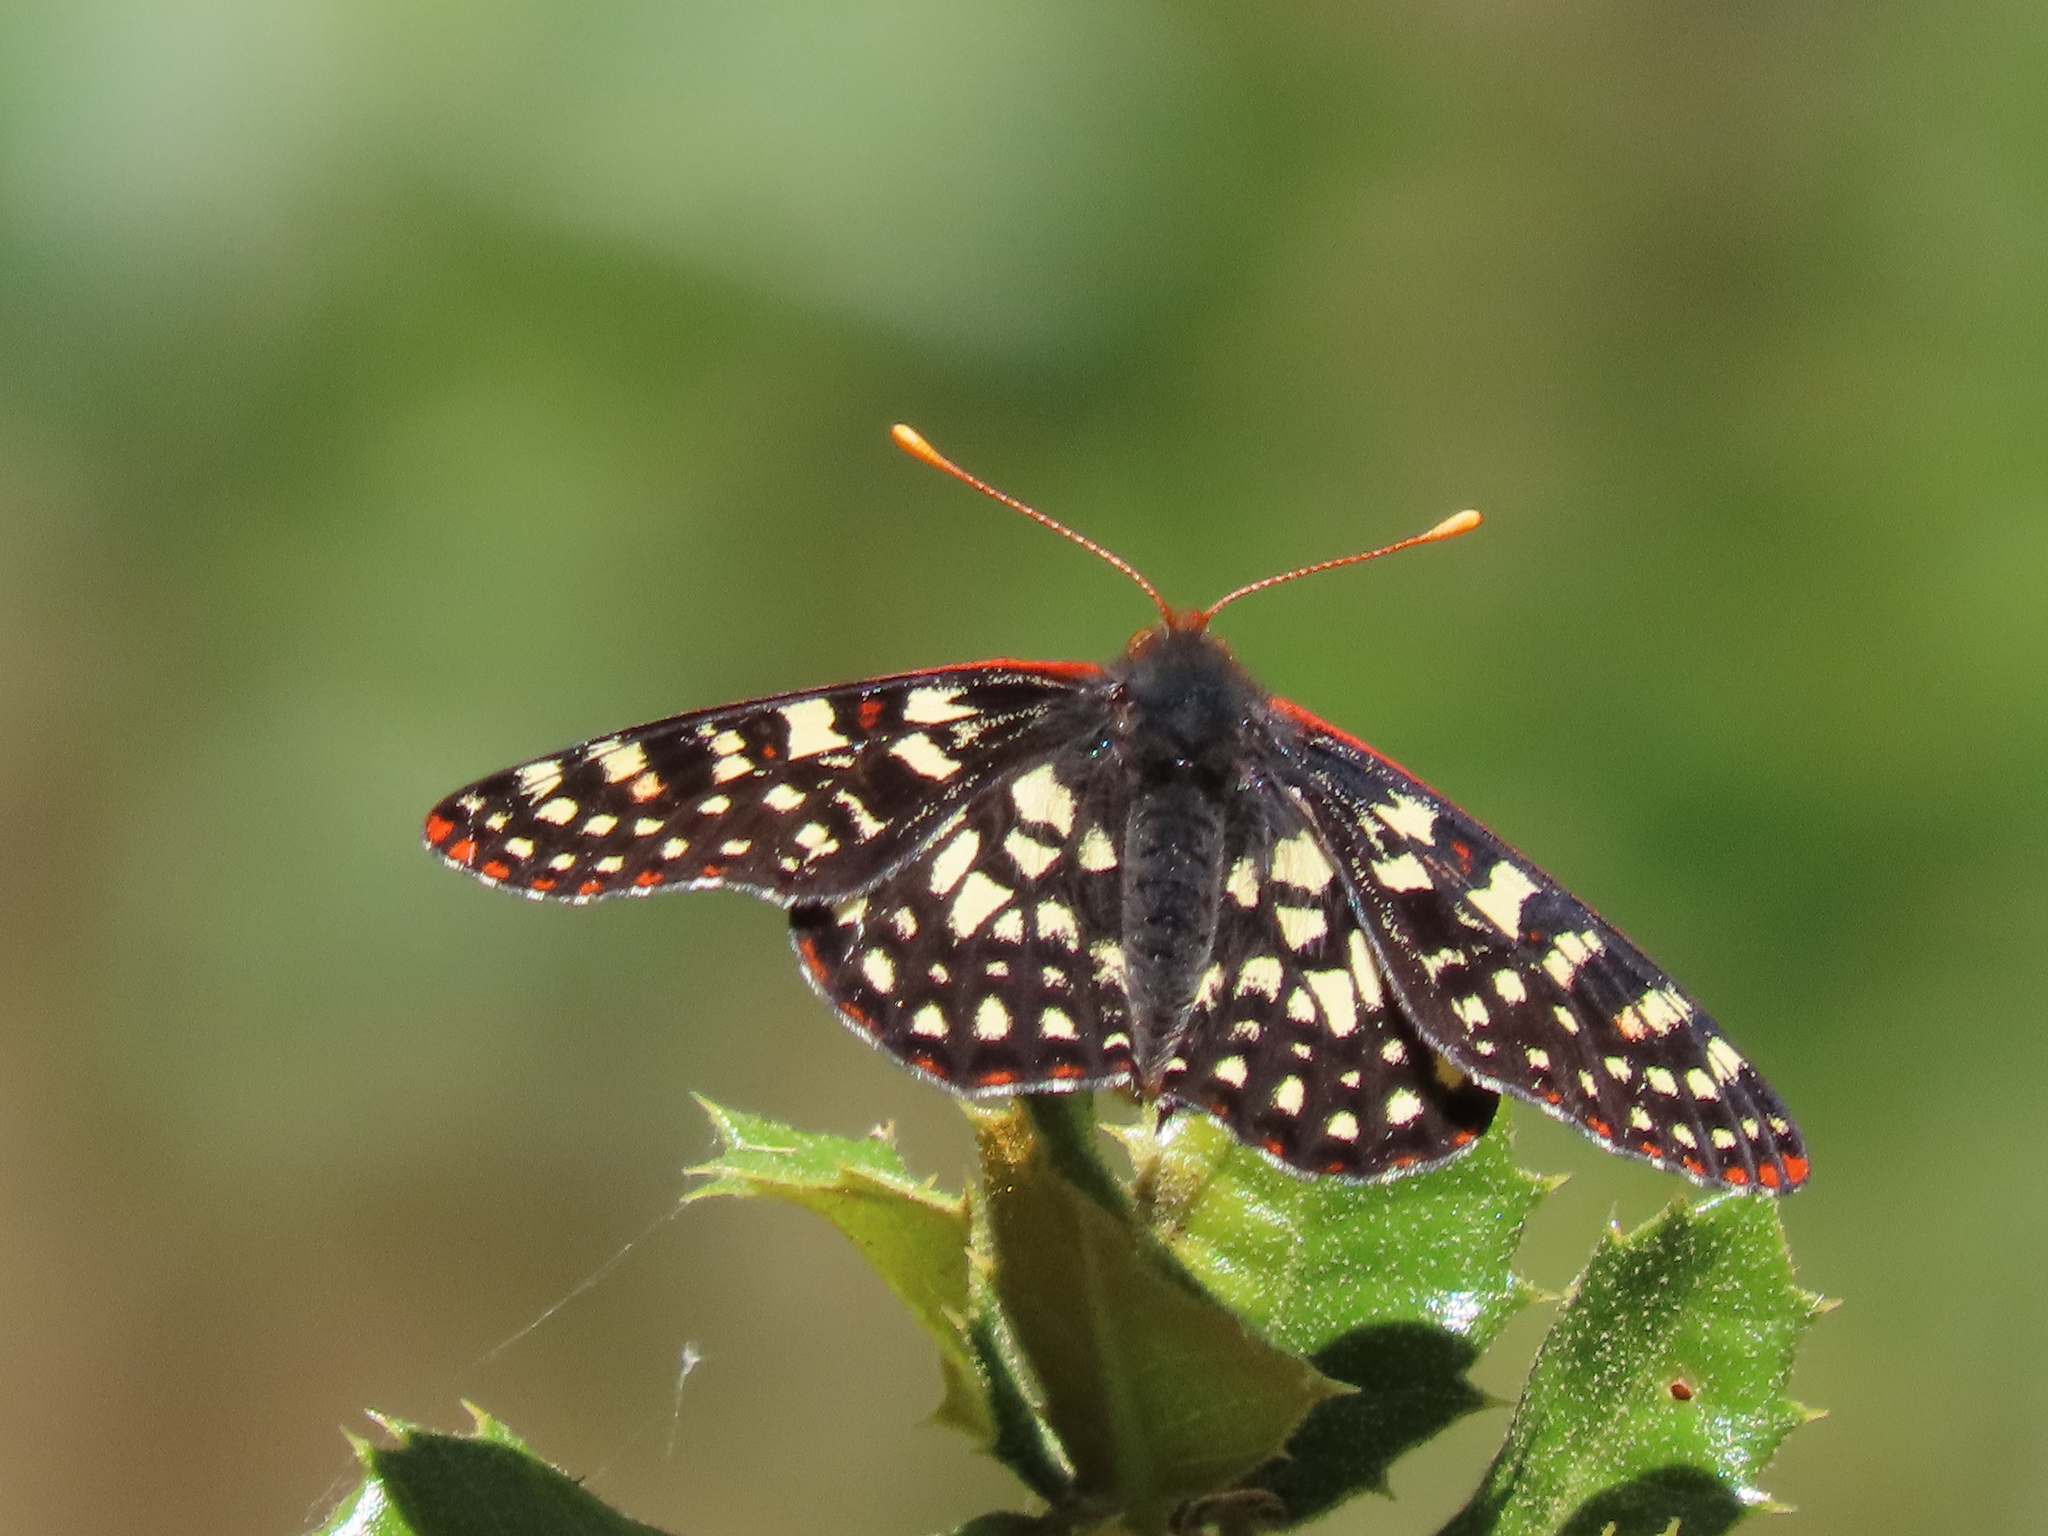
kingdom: Animalia
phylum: Arthropoda
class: Insecta
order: Lepidoptera
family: Nymphalidae
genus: Occidryas
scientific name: Occidryas chalcedona
